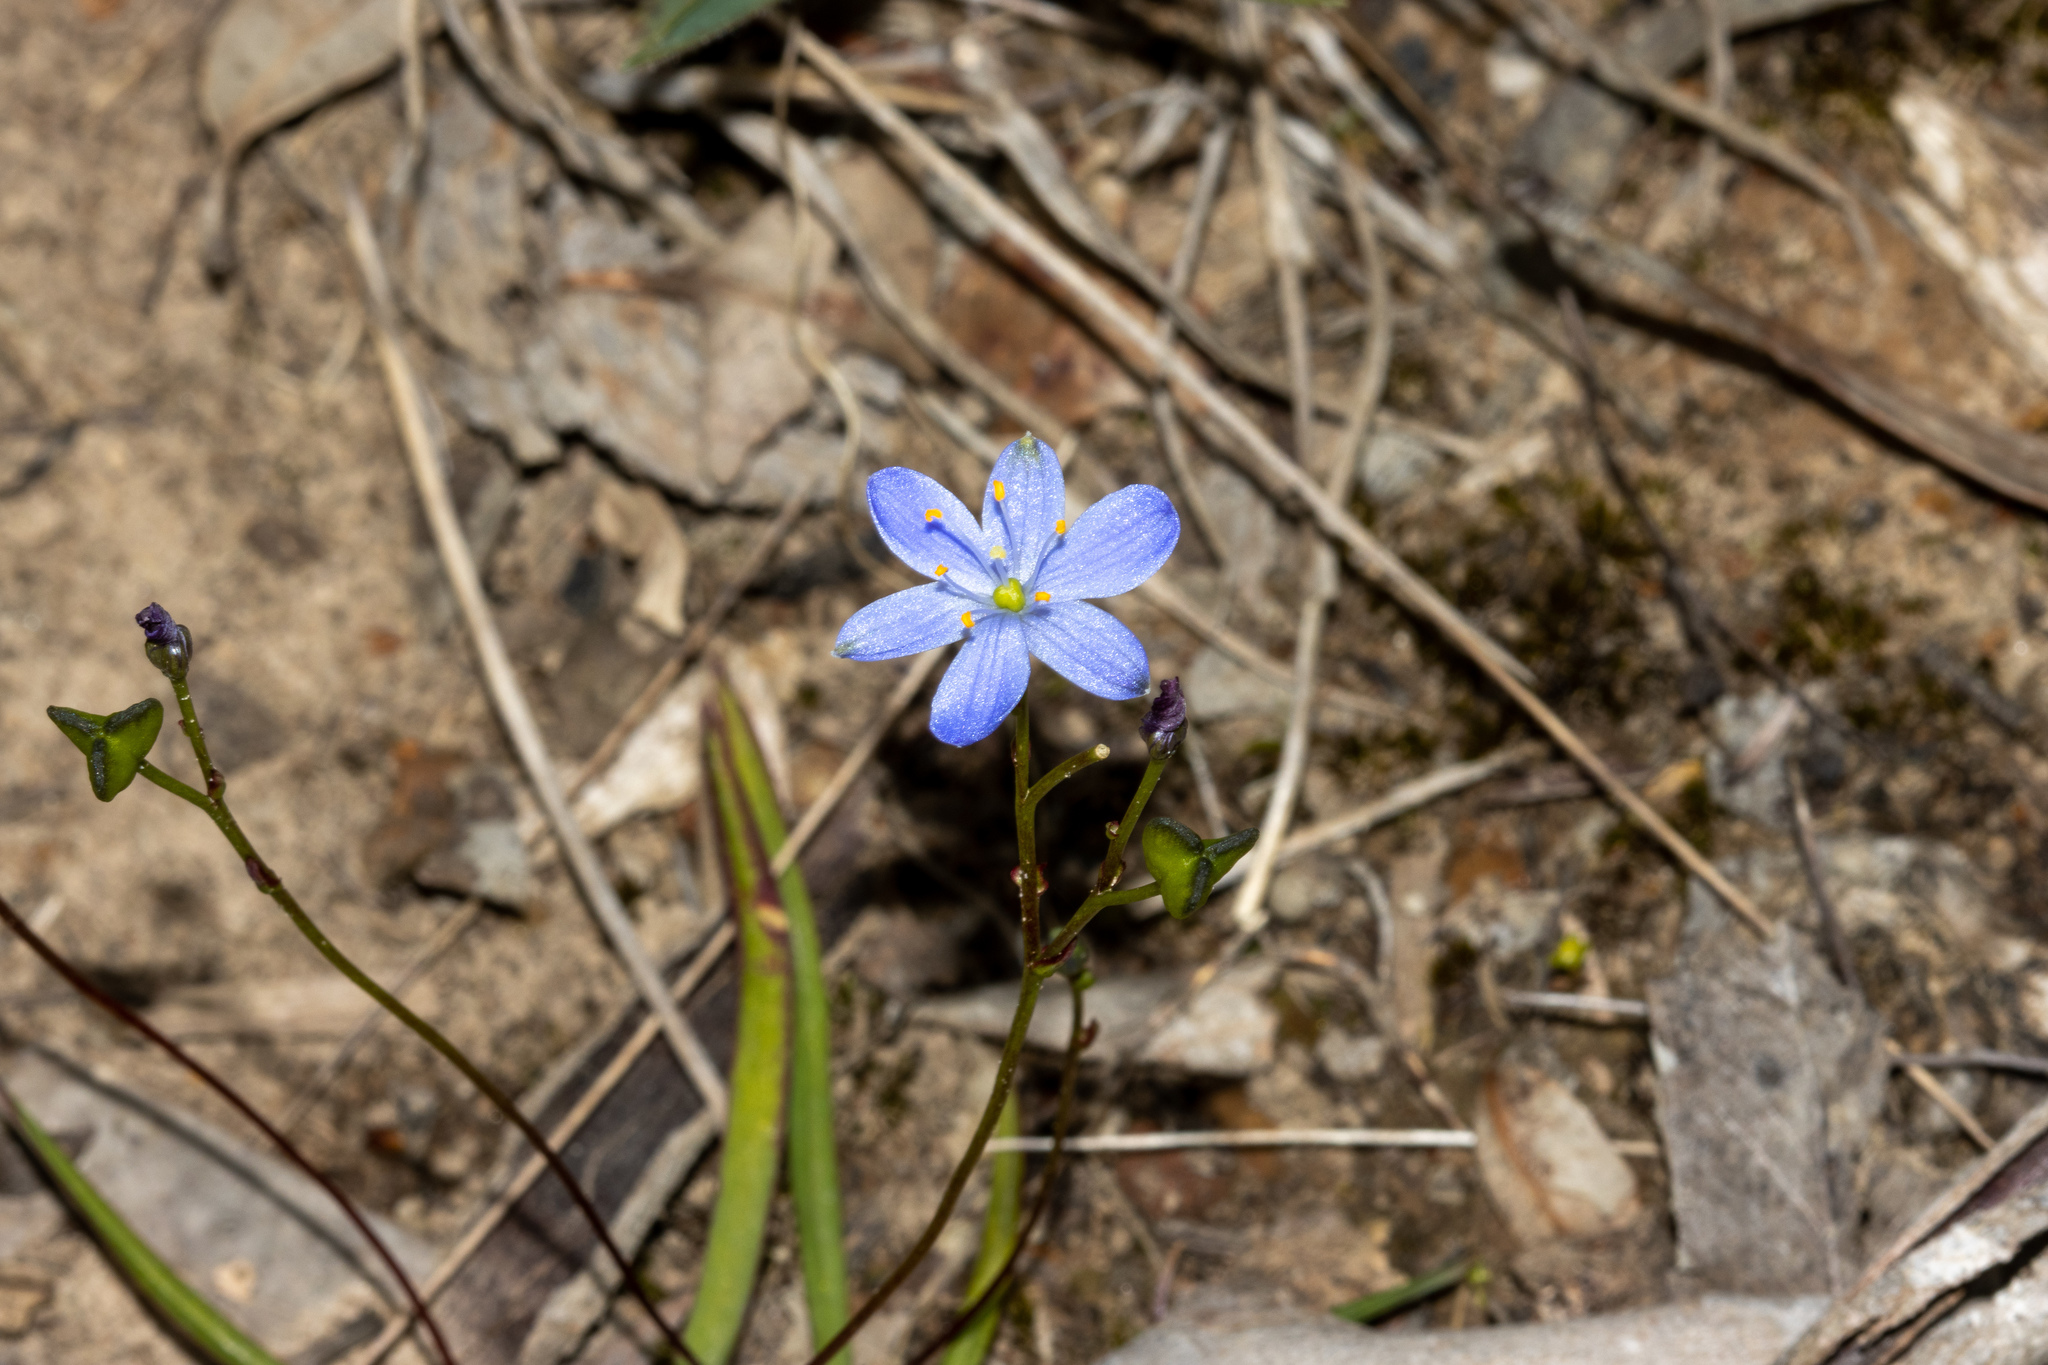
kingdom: Plantae
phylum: Tracheophyta
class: Liliopsida
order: Asparagales
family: Asphodelaceae
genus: Chamaescilla
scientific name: Chamaescilla corymbosa
